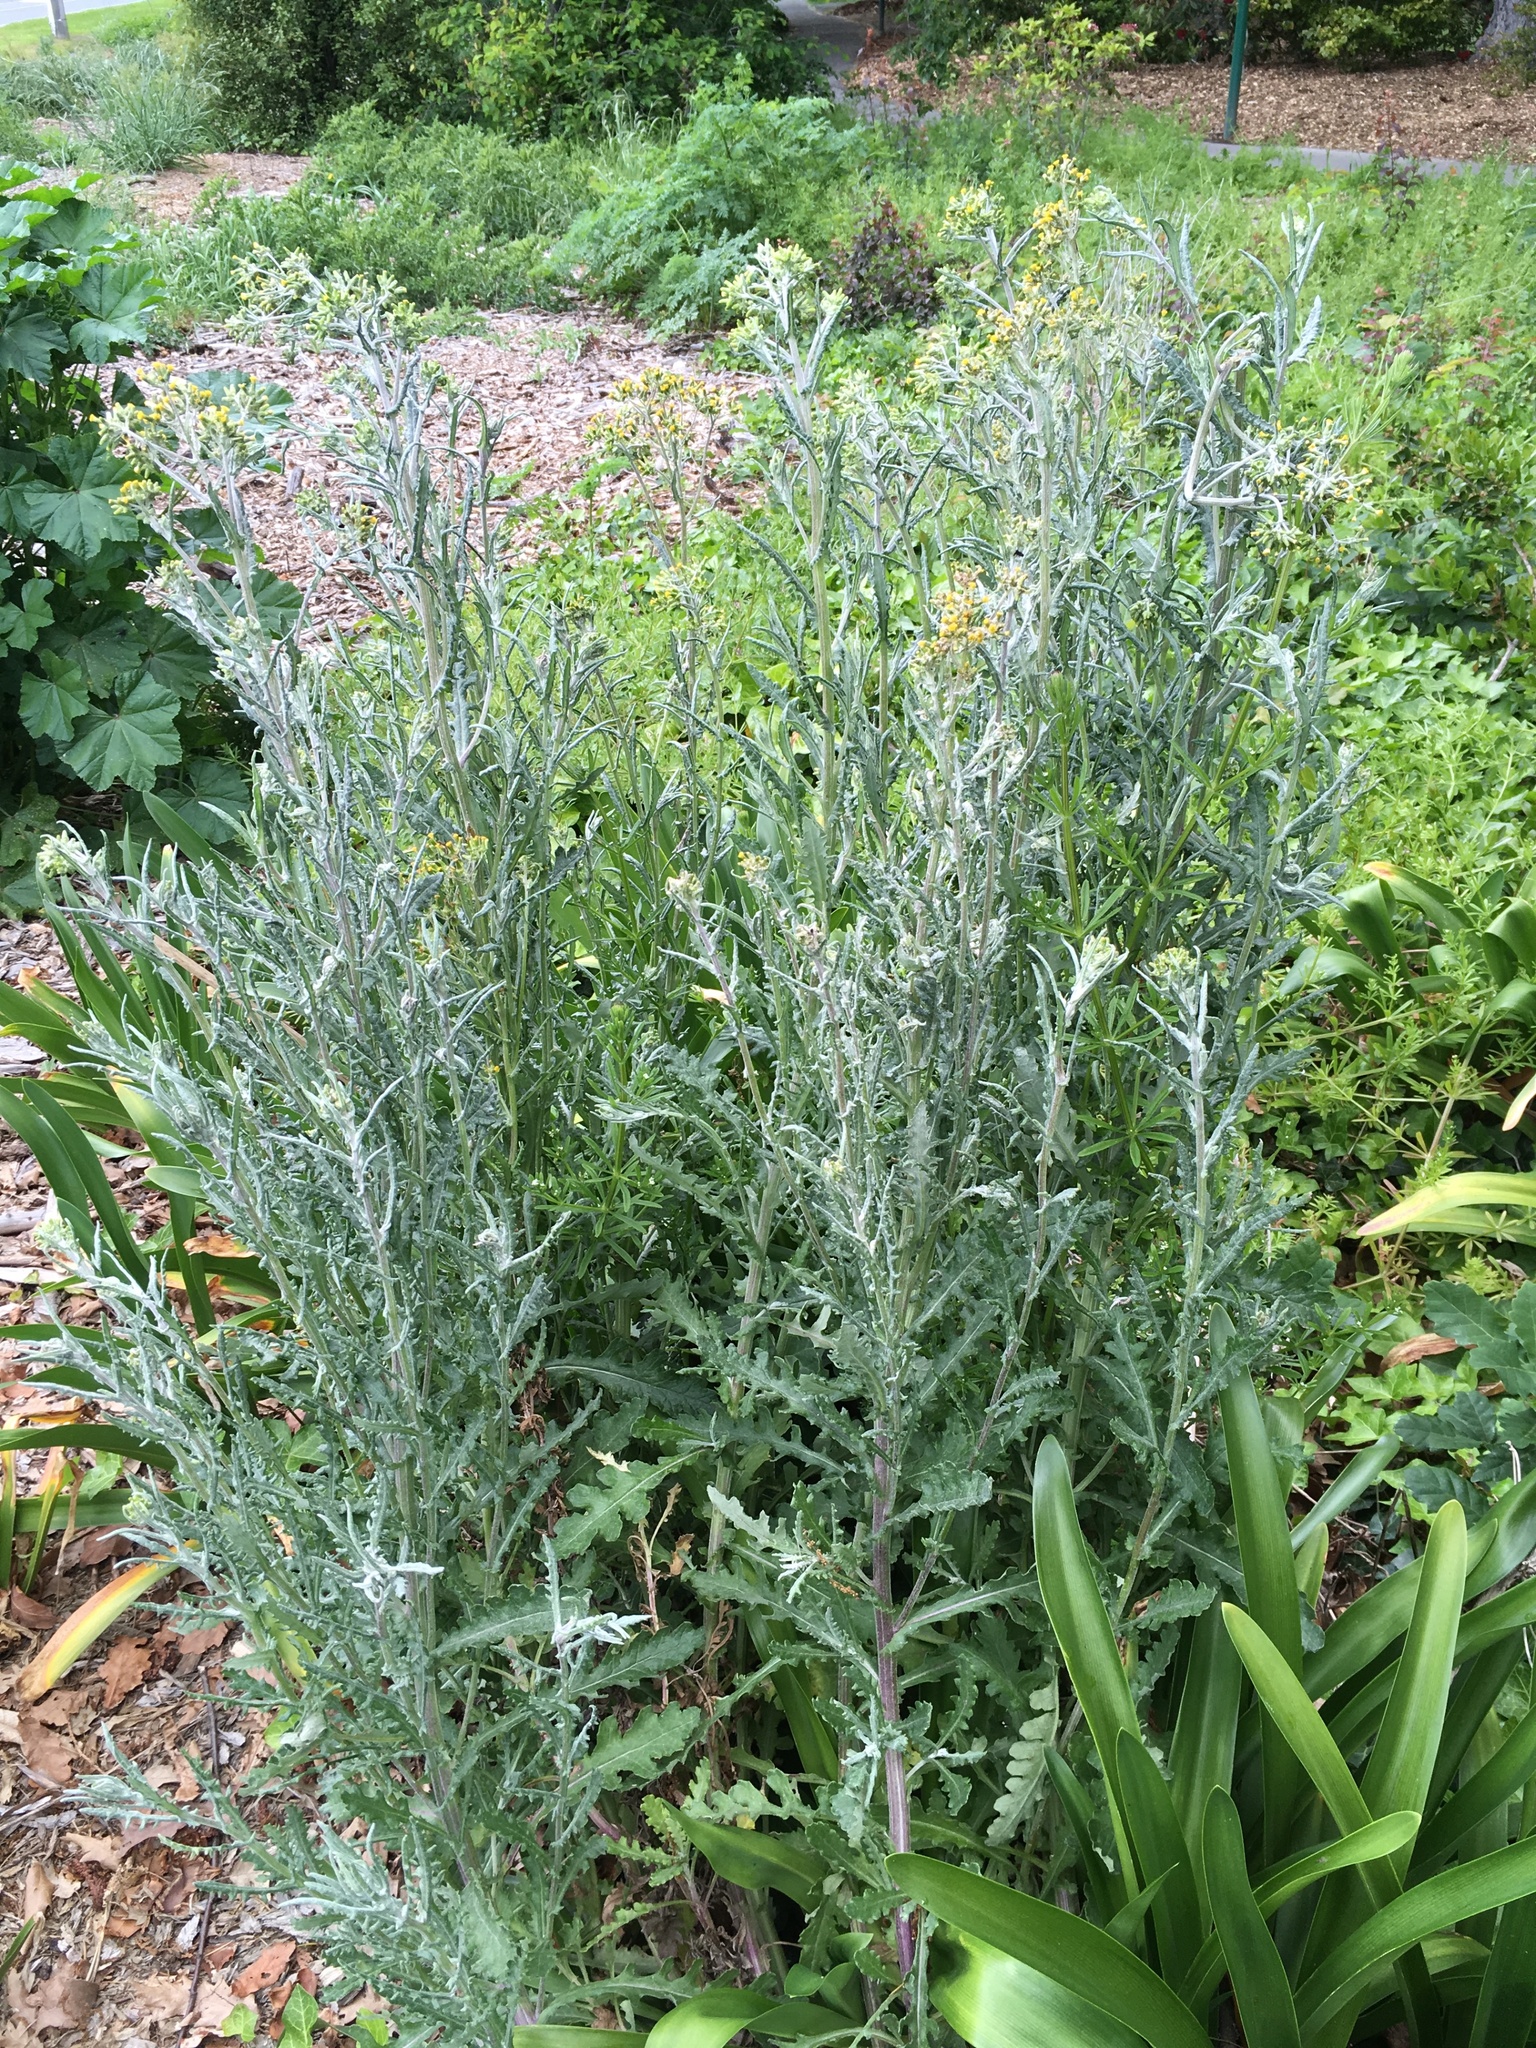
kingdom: Plantae
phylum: Tracheophyta
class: Magnoliopsida
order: Asterales
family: Asteraceae
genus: Senecio
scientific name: Senecio glomeratus
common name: Cutleaf burnweed
